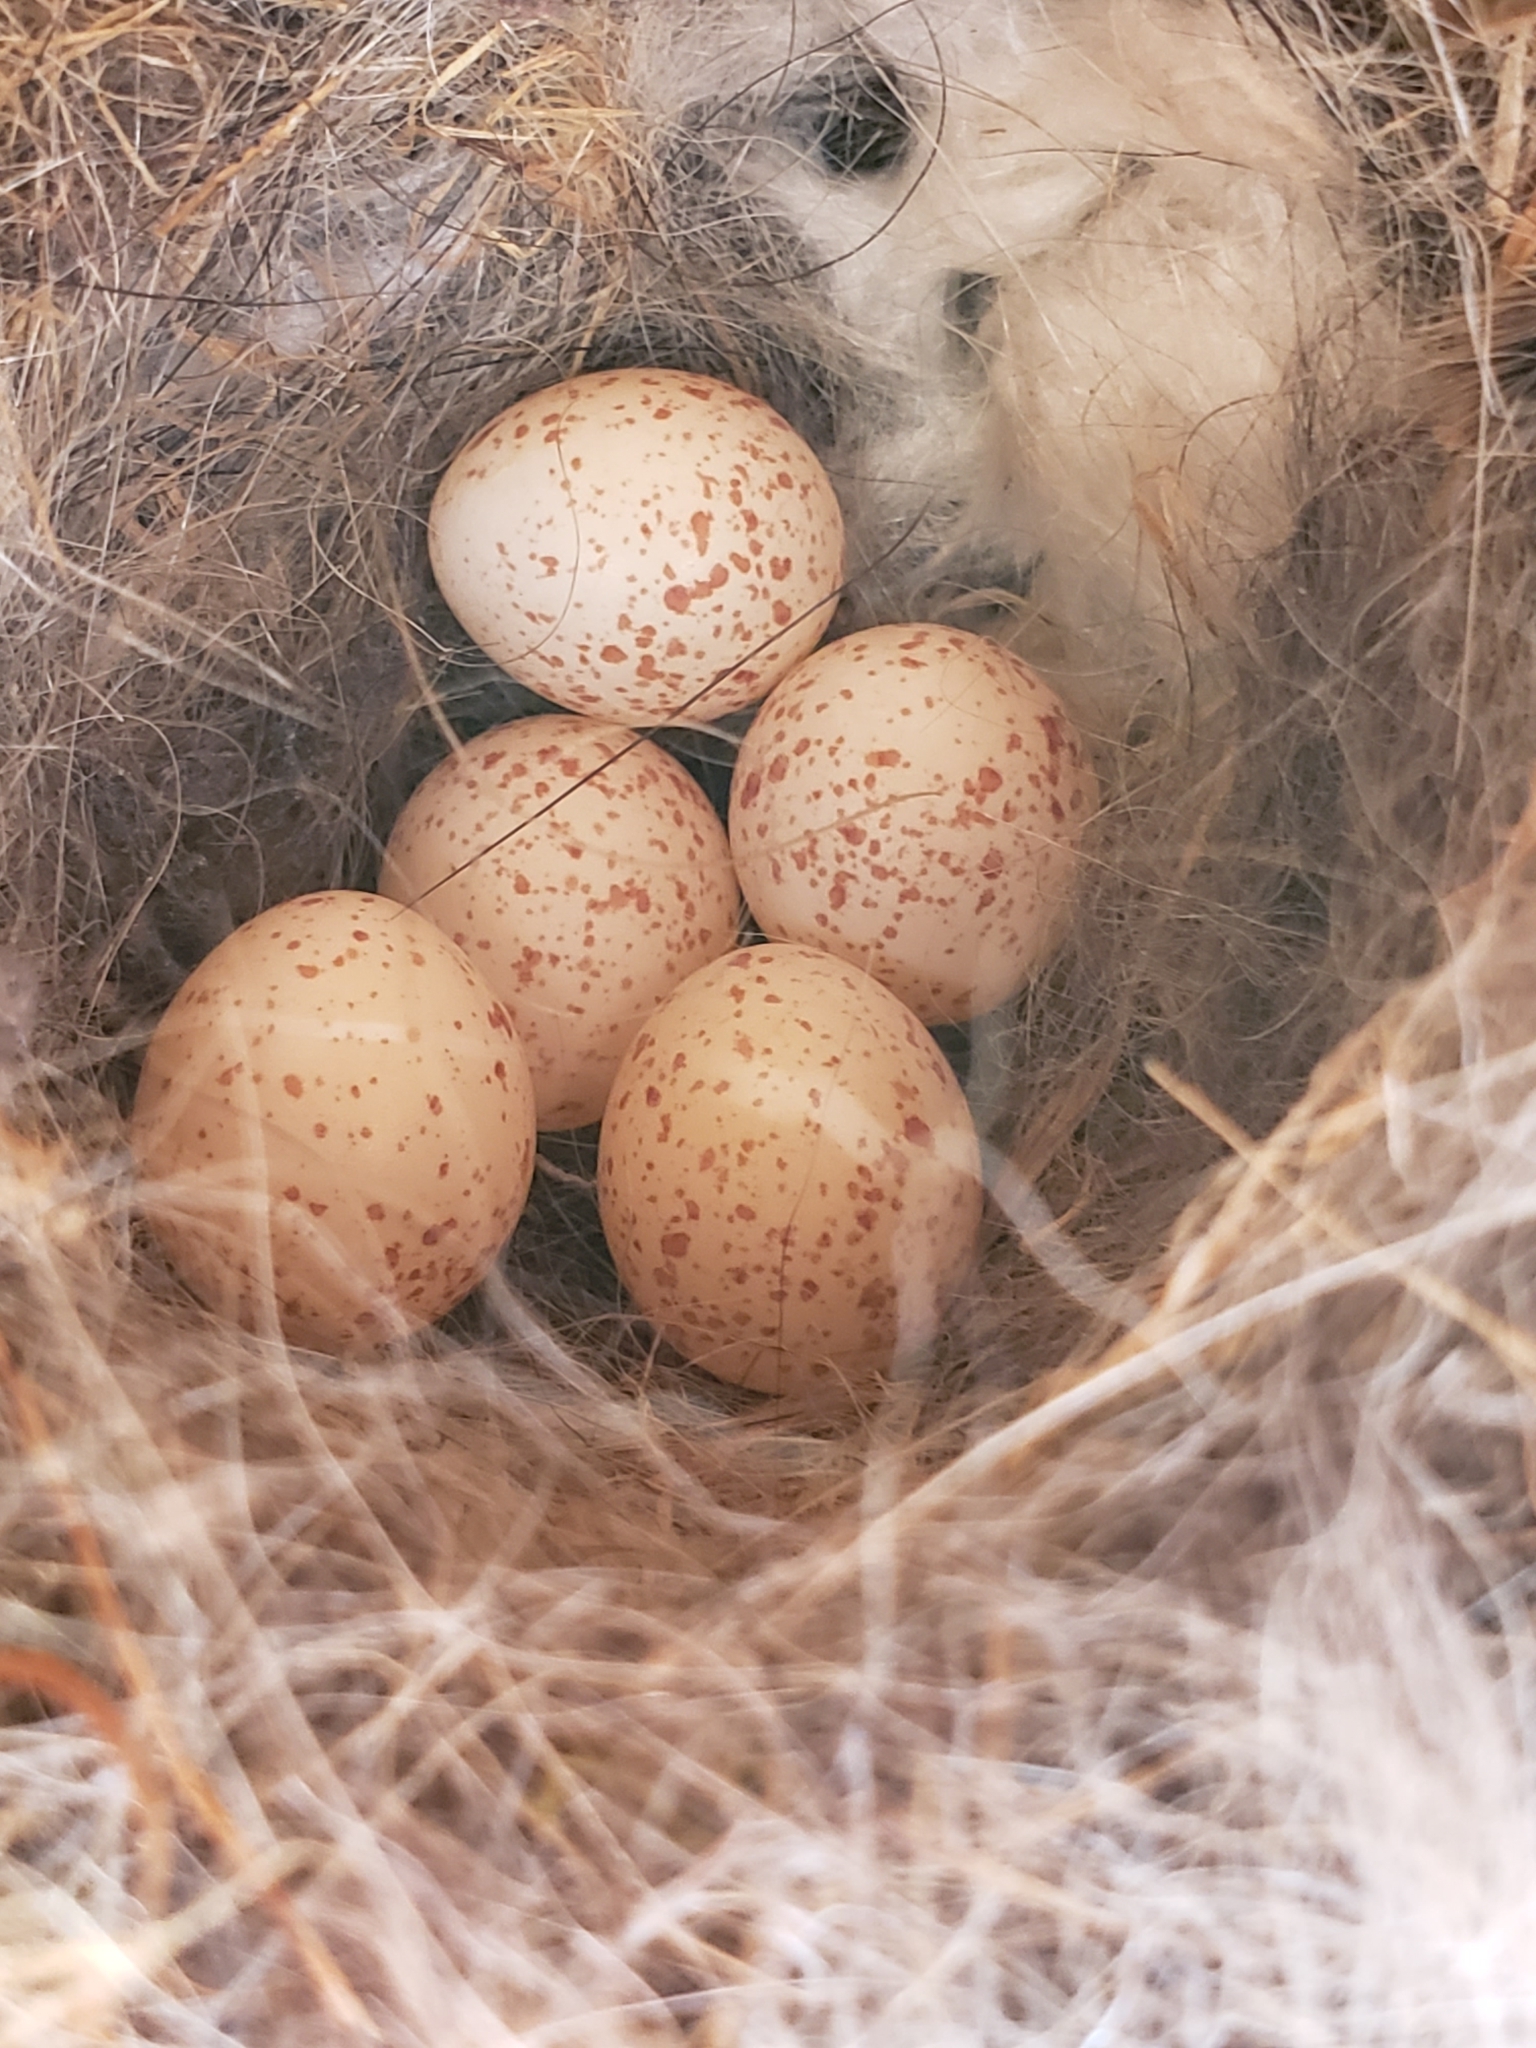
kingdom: Animalia
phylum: Chordata
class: Aves
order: Passeriformes
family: Paridae
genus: Poecile
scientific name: Poecile carolinensis
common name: Carolina chickadee
